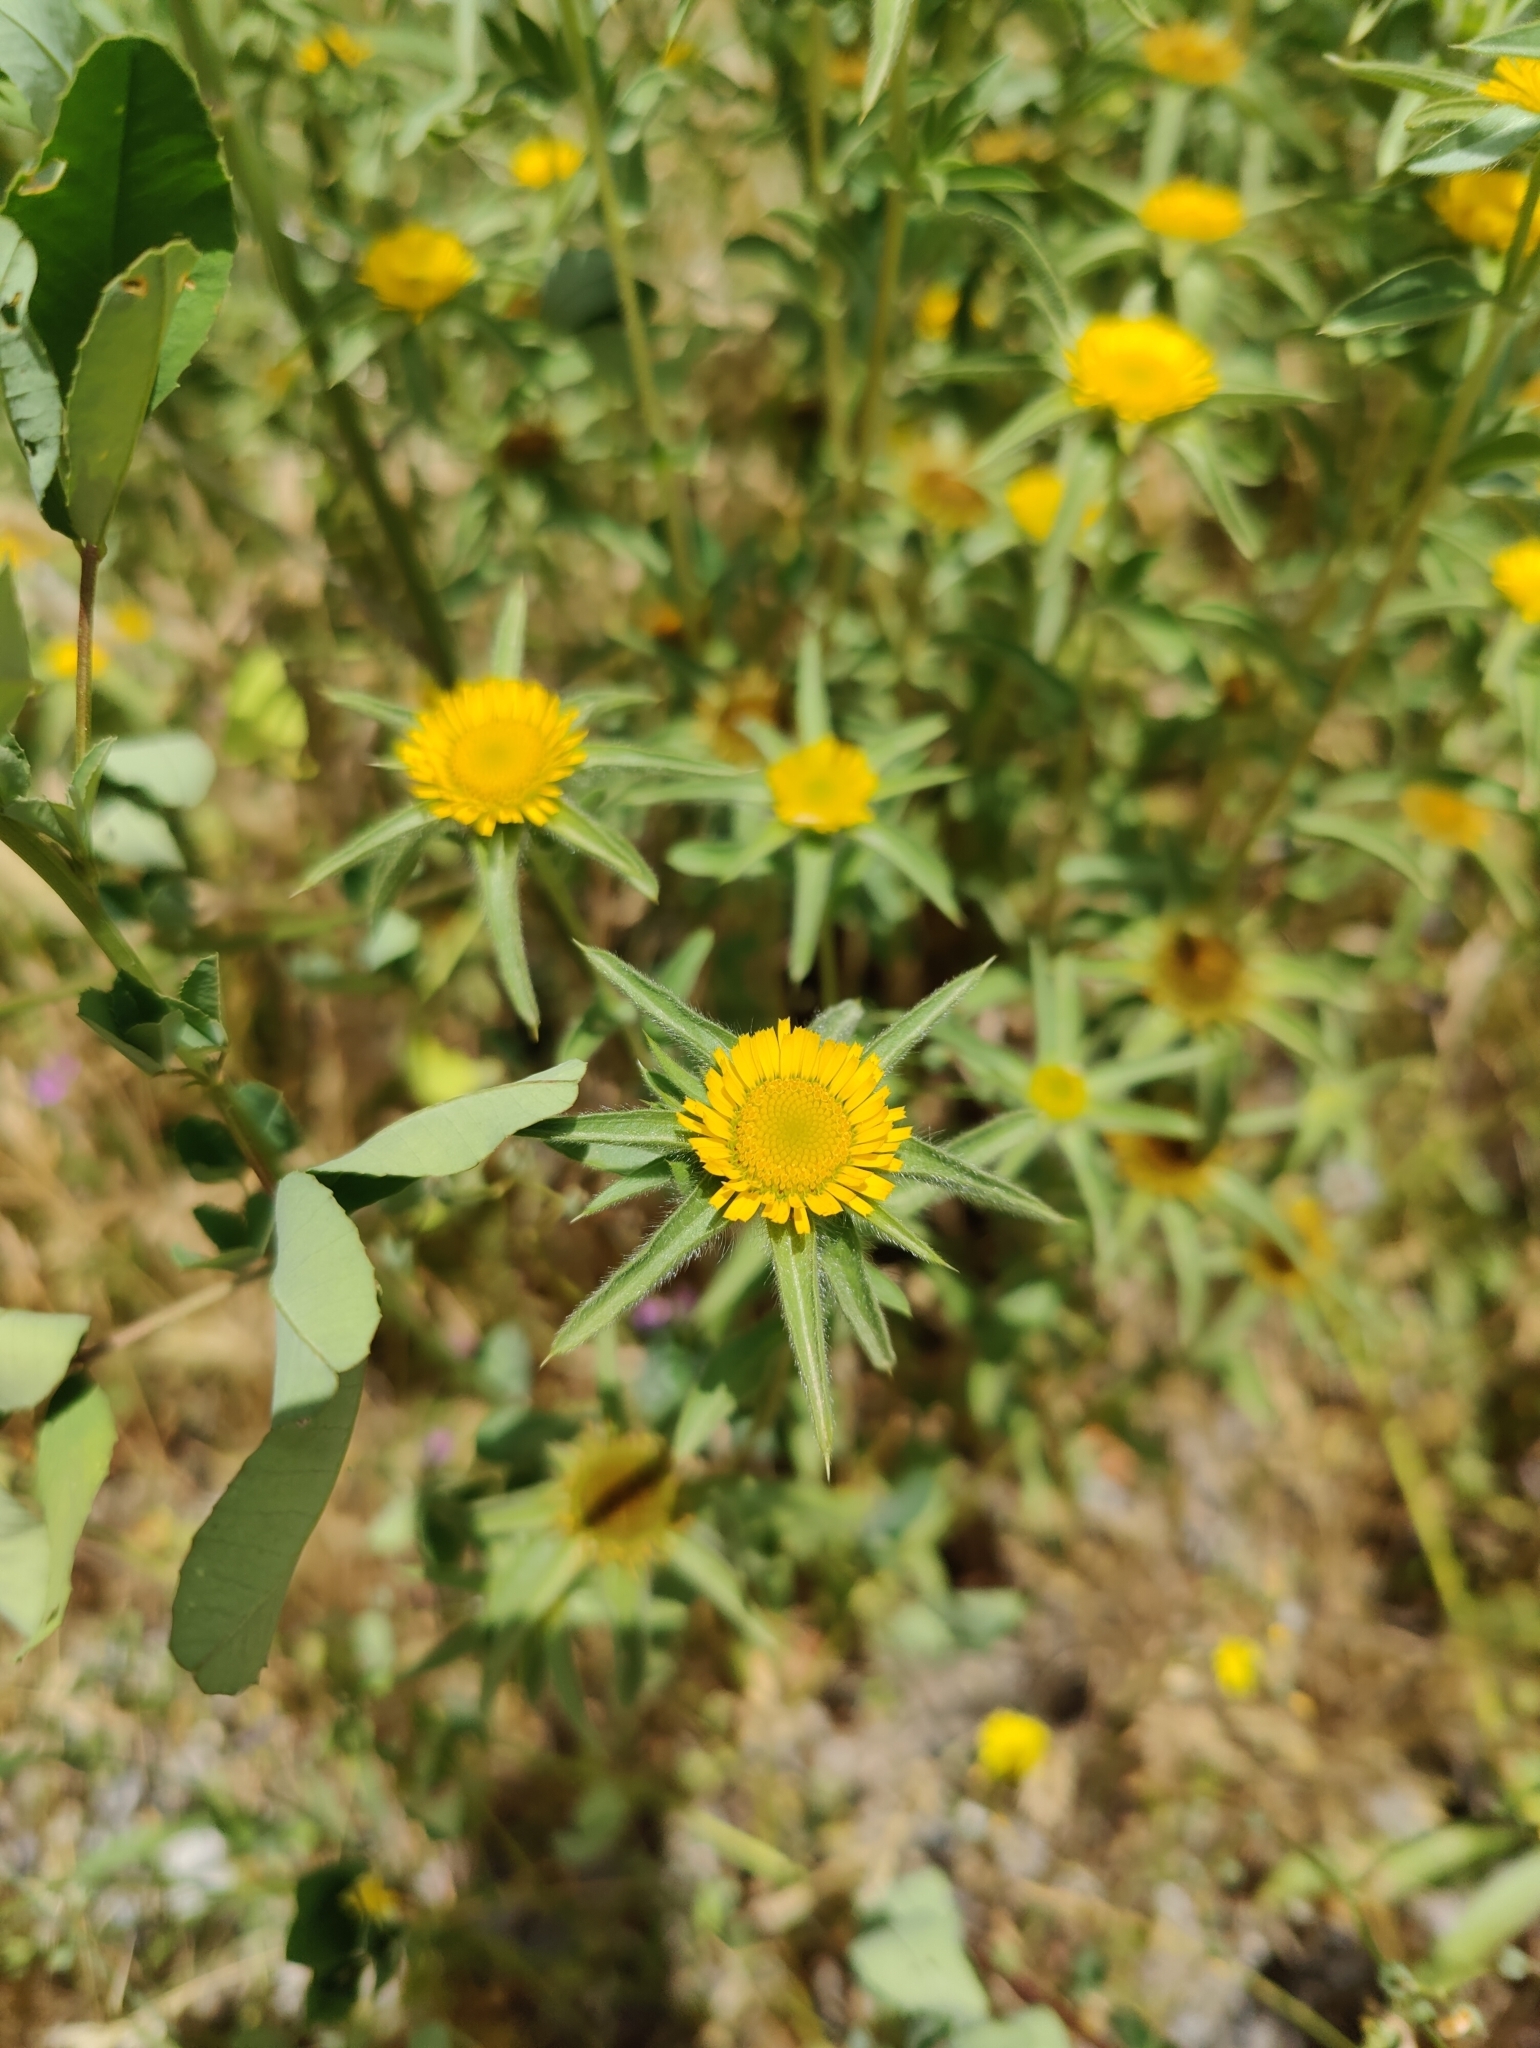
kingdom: Plantae
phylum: Tracheophyta
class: Magnoliopsida
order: Asterales
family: Asteraceae
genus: Pallenis
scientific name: Pallenis spinosa
